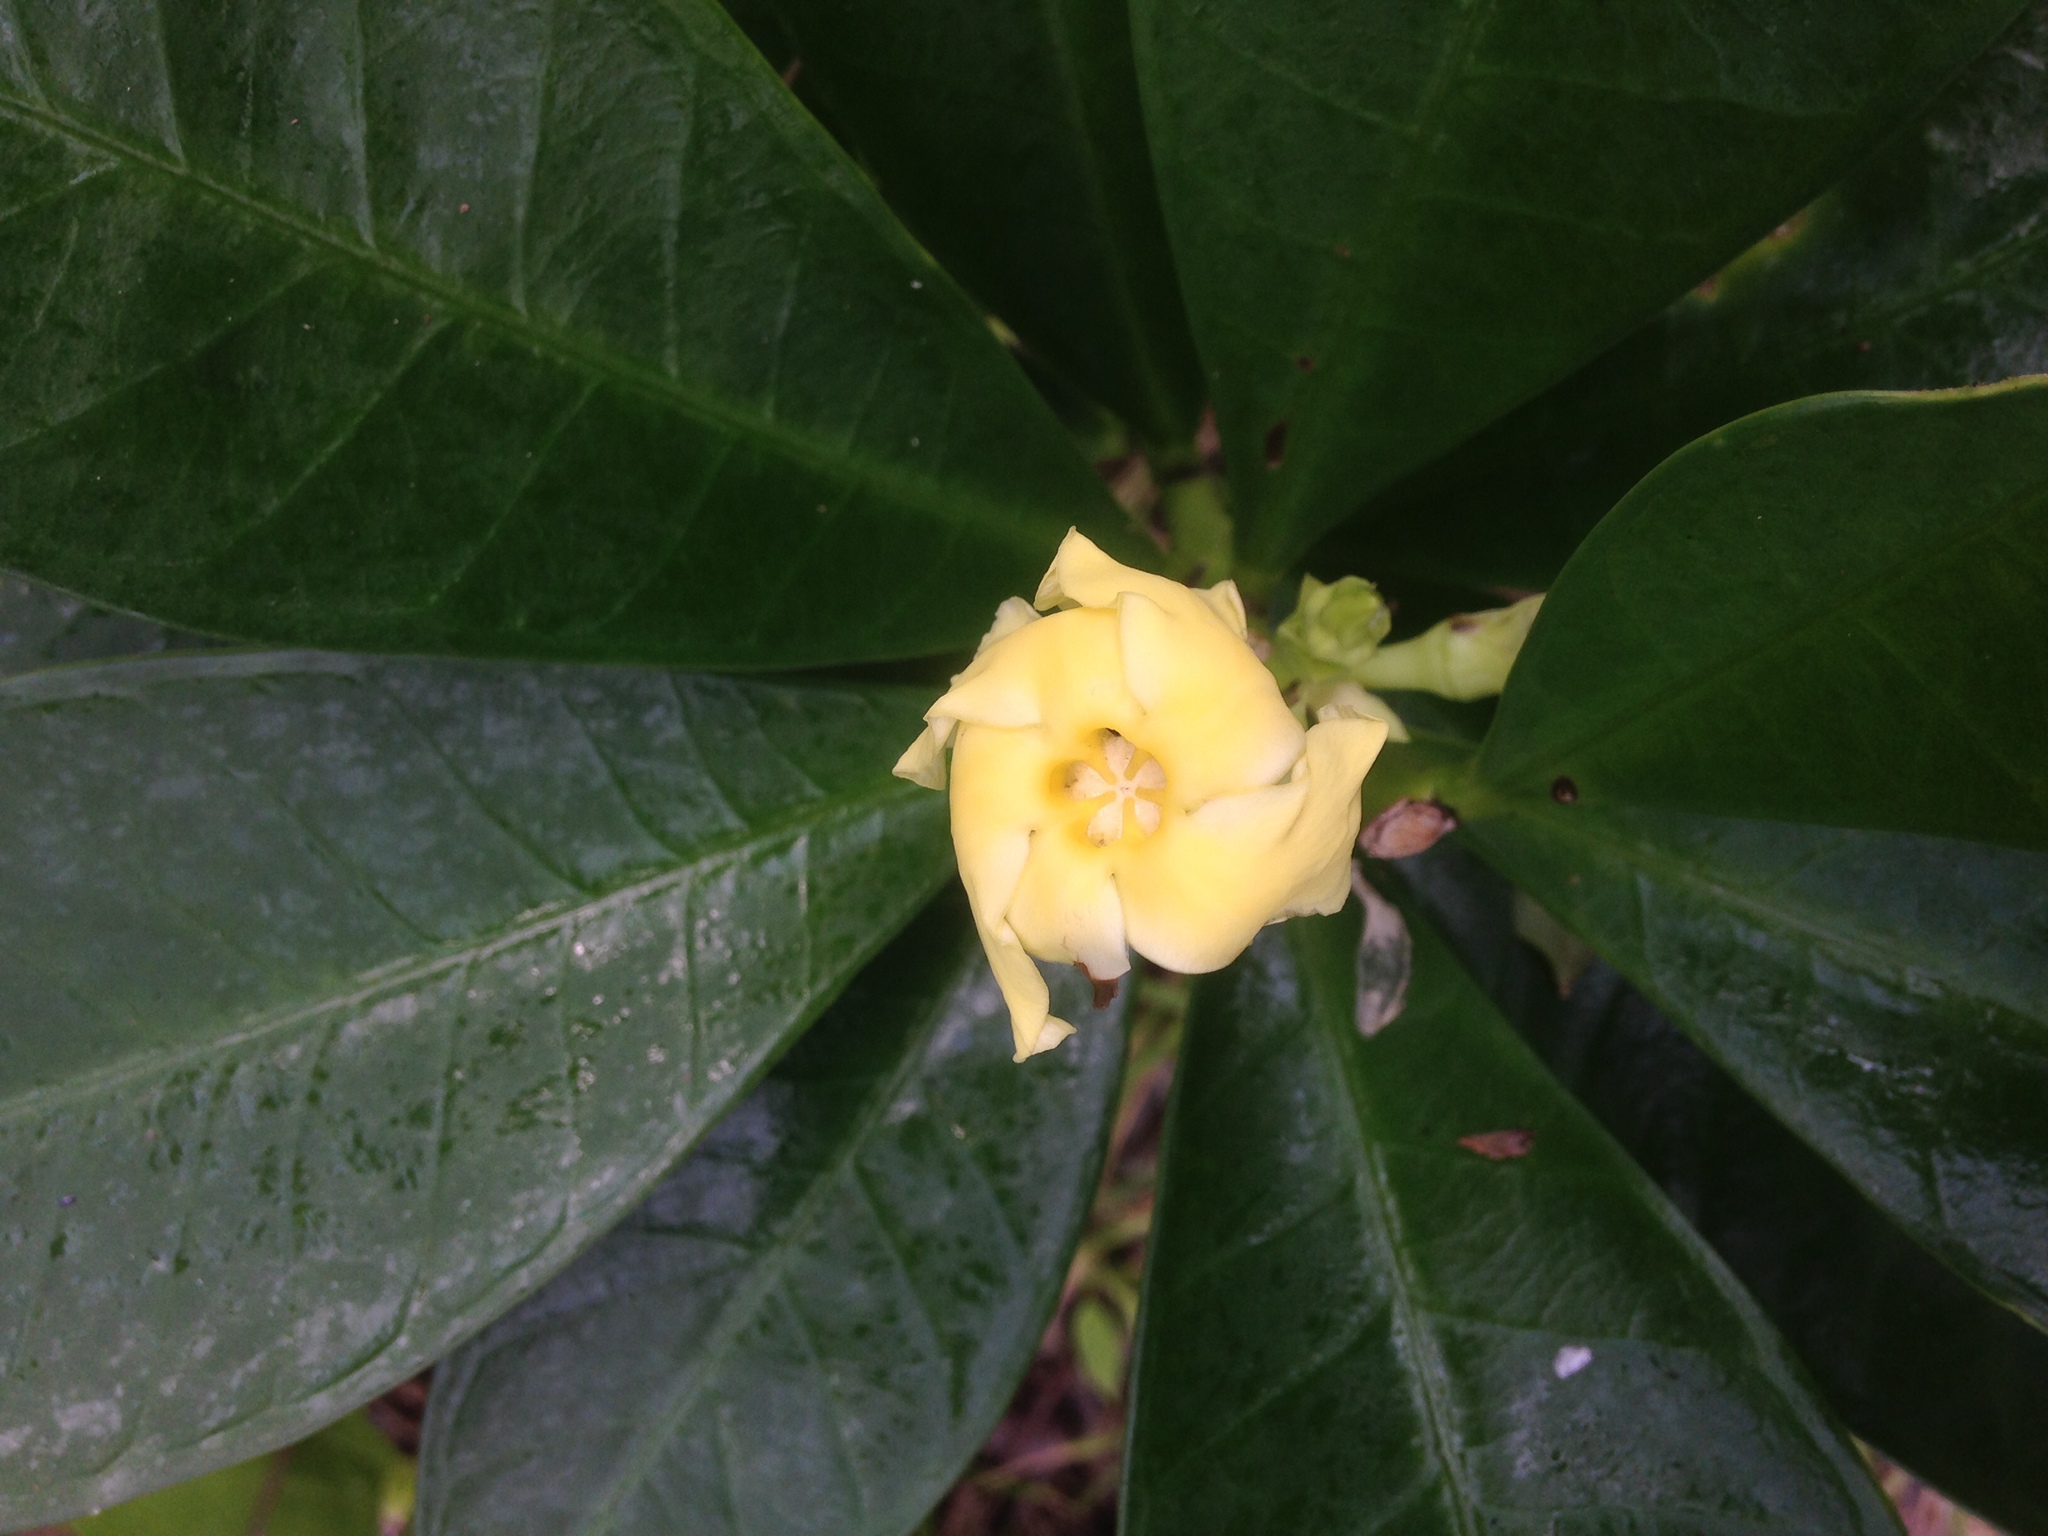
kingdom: Plantae
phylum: Tracheophyta
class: Magnoliopsida
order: Gentianales
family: Apocynaceae
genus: Thevetia
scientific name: Thevetia ahouai
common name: Broadleaf thevetia
